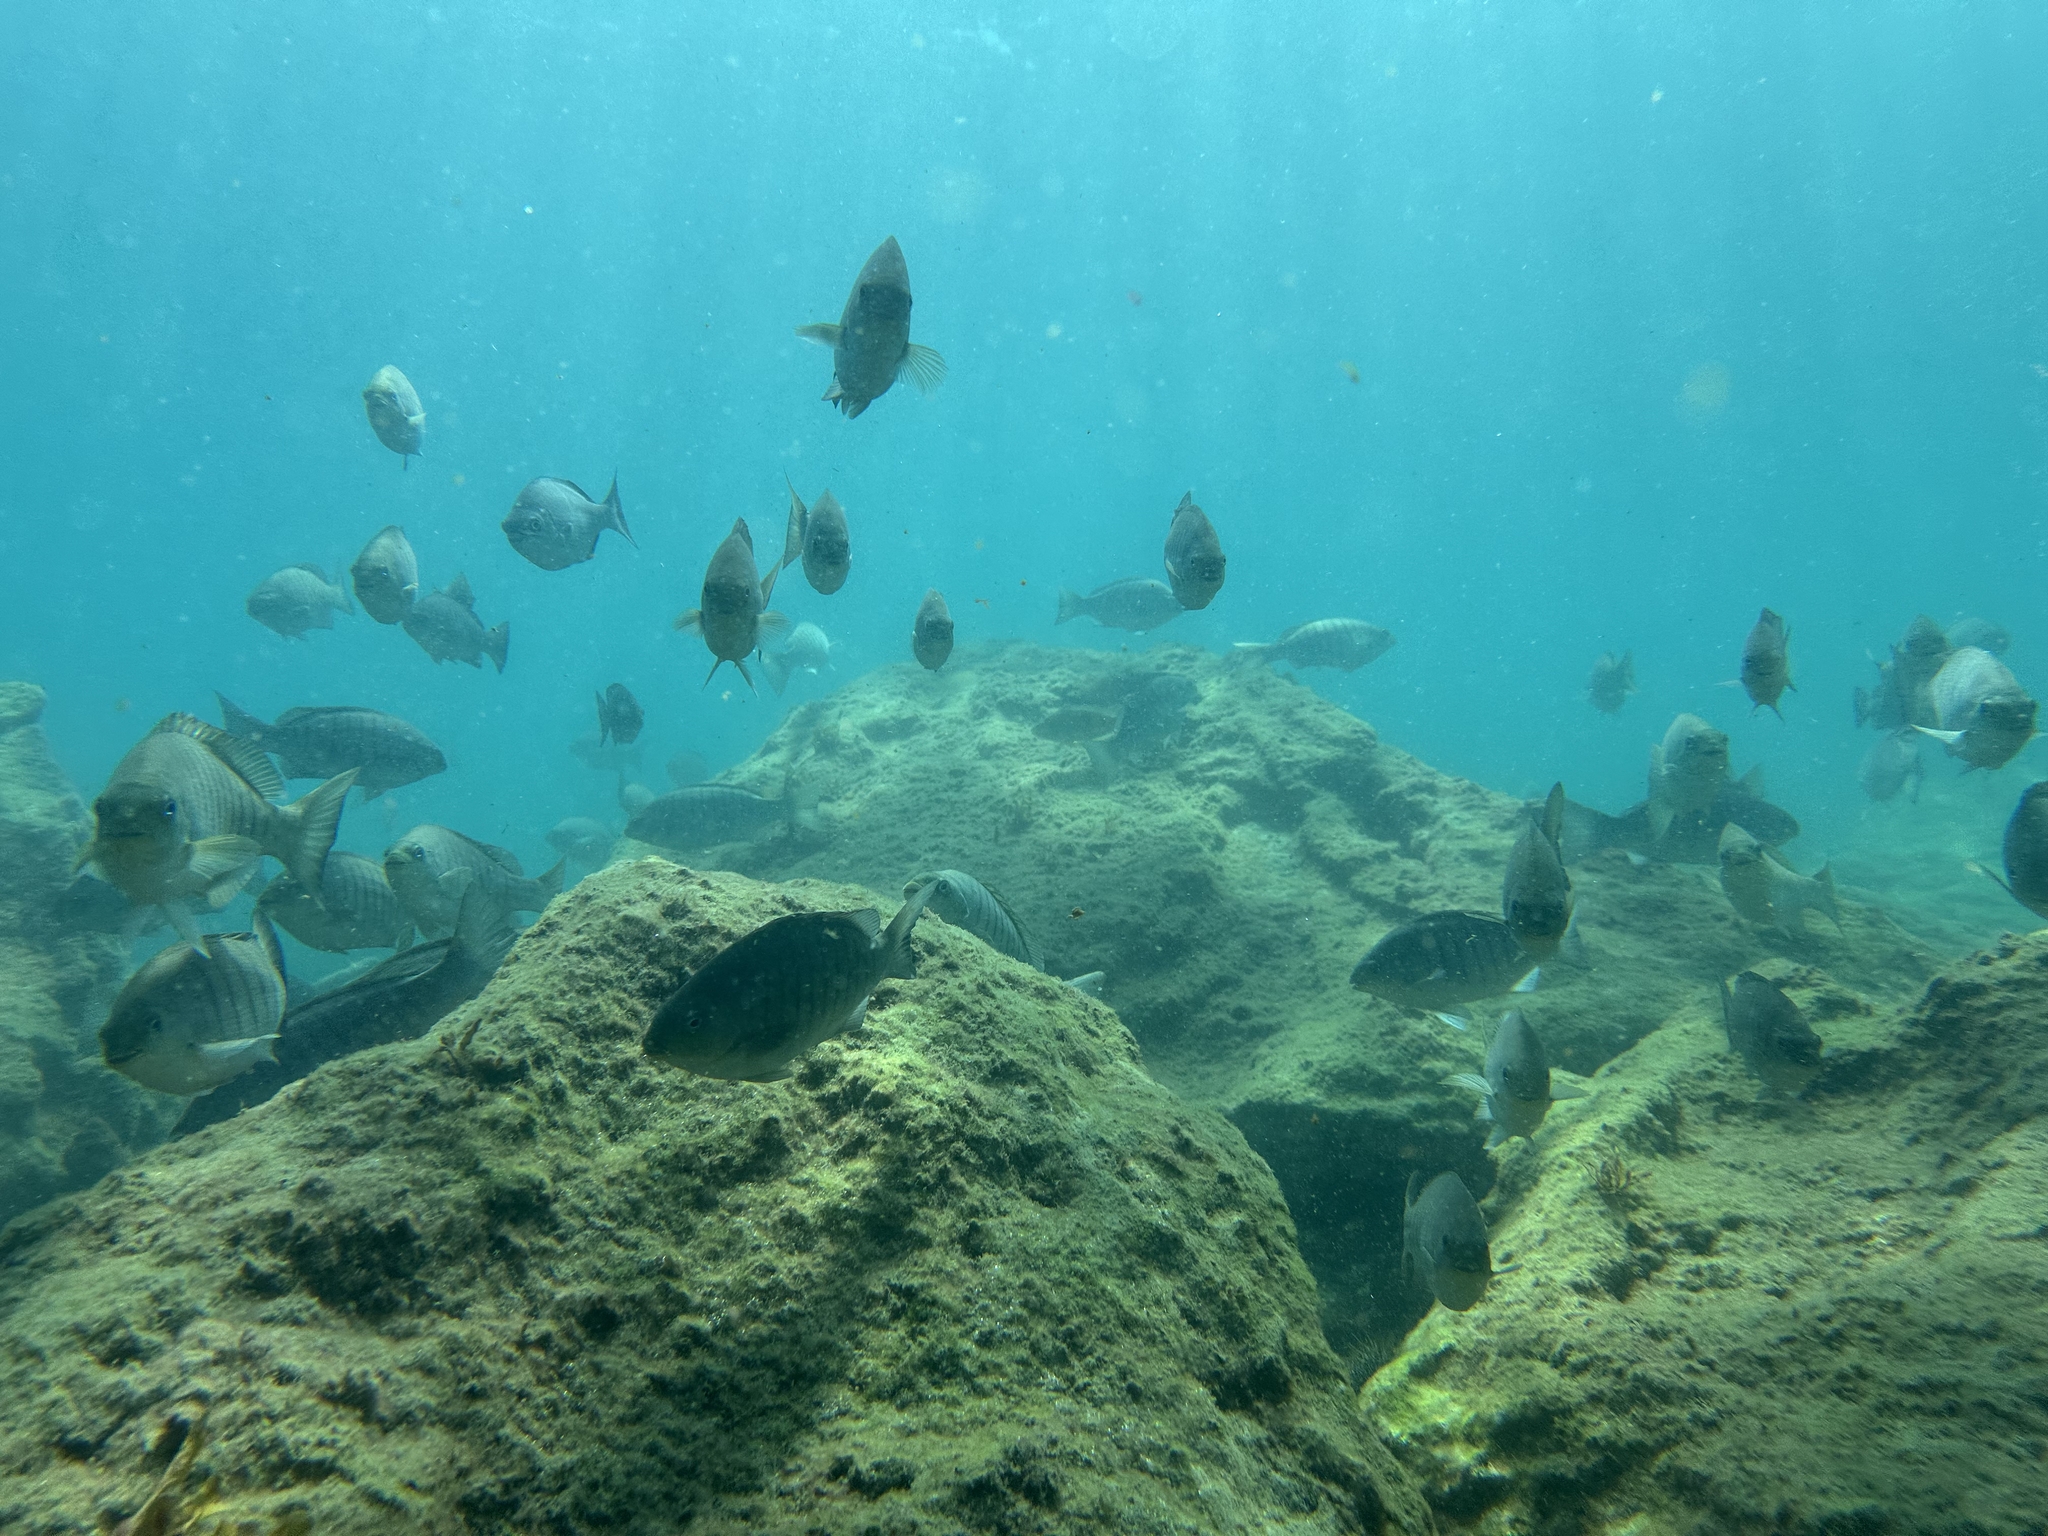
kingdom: Animalia
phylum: Chordata
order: Perciformes
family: Kyphosidae
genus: Girella
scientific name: Girella tricuspidata
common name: Parore
